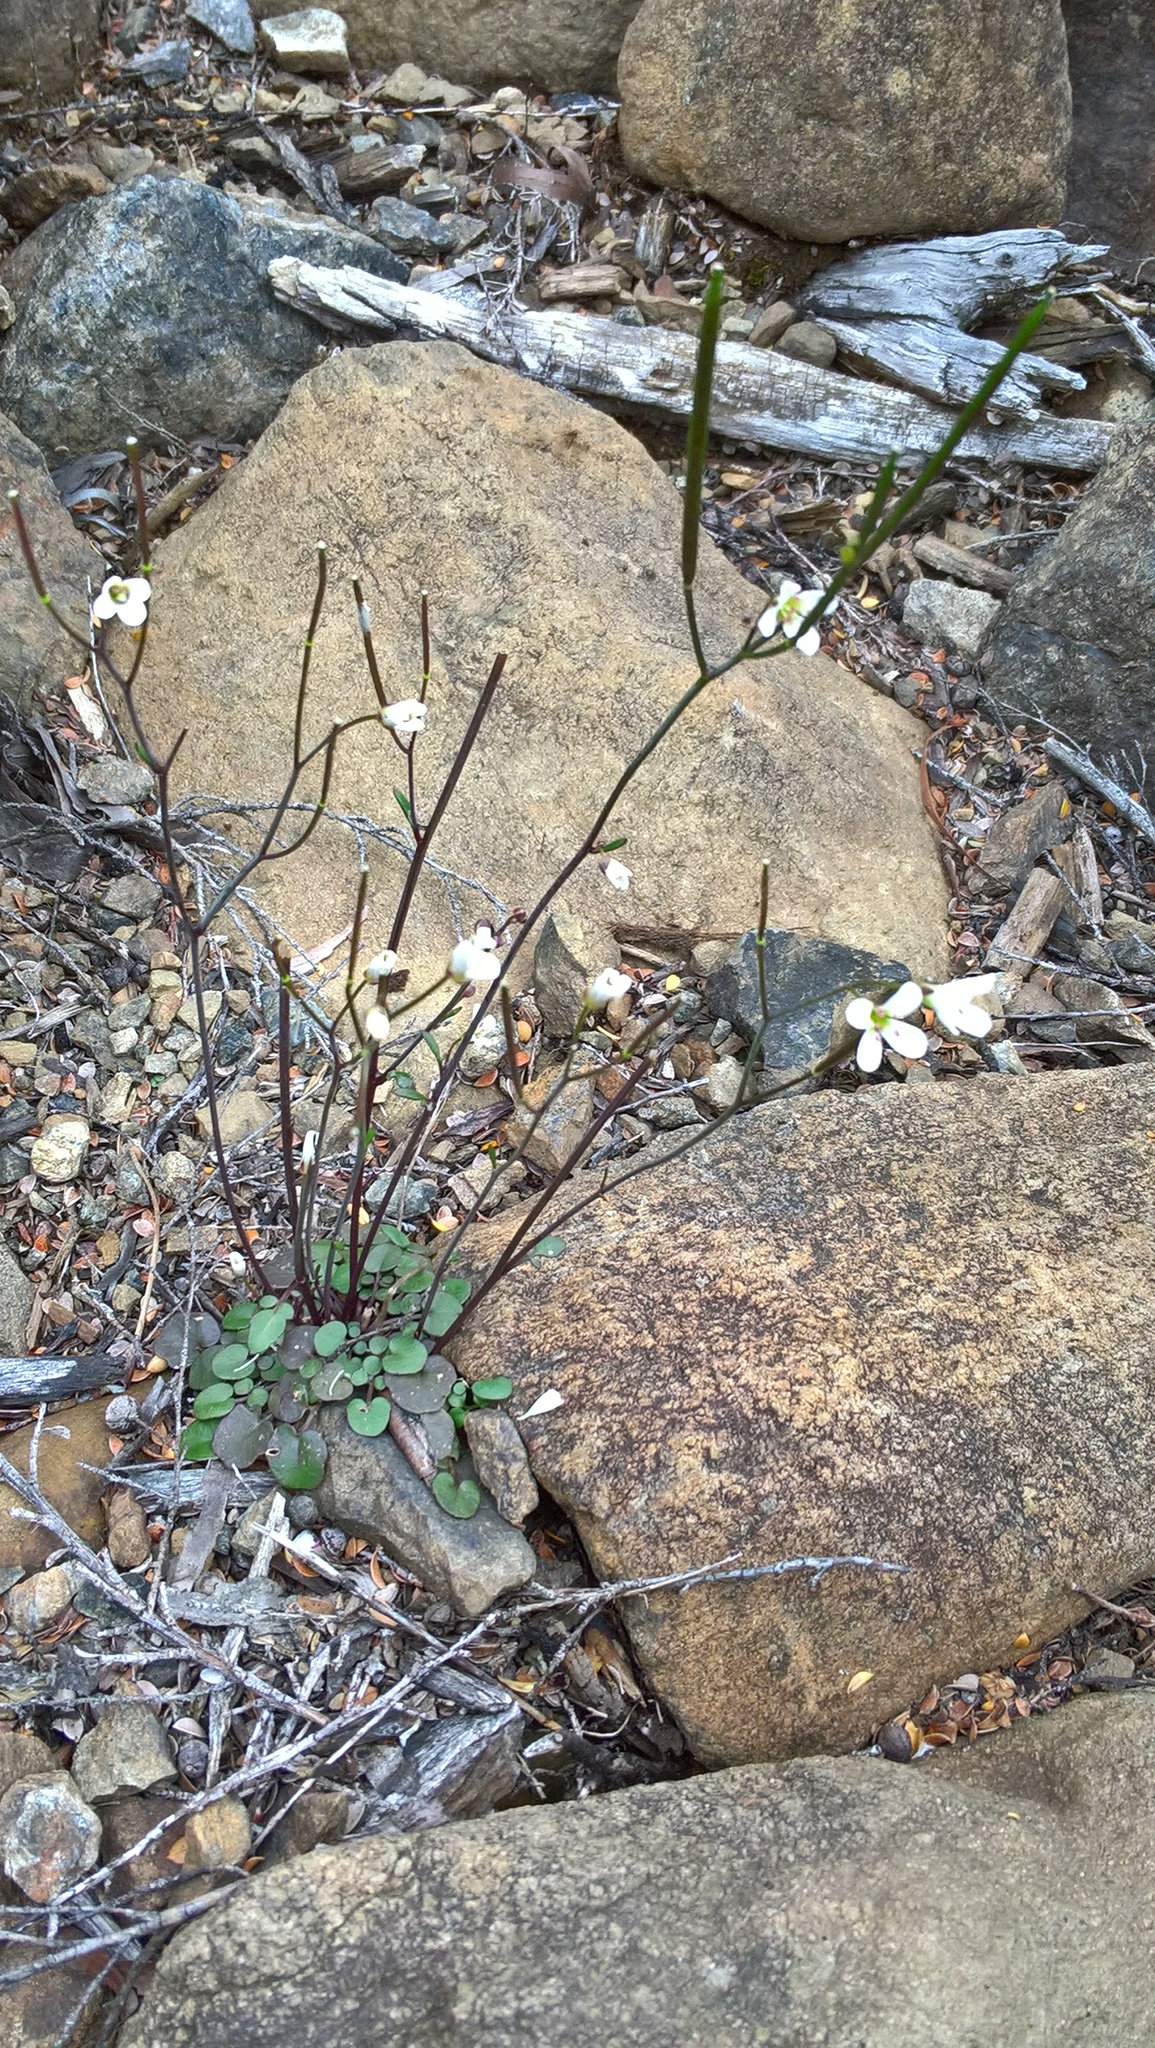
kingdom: Plantae
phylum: Tracheophyta
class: Magnoliopsida
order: Brassicales
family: Brassicaceae
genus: Cardamine
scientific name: Cardamine dactyloides
